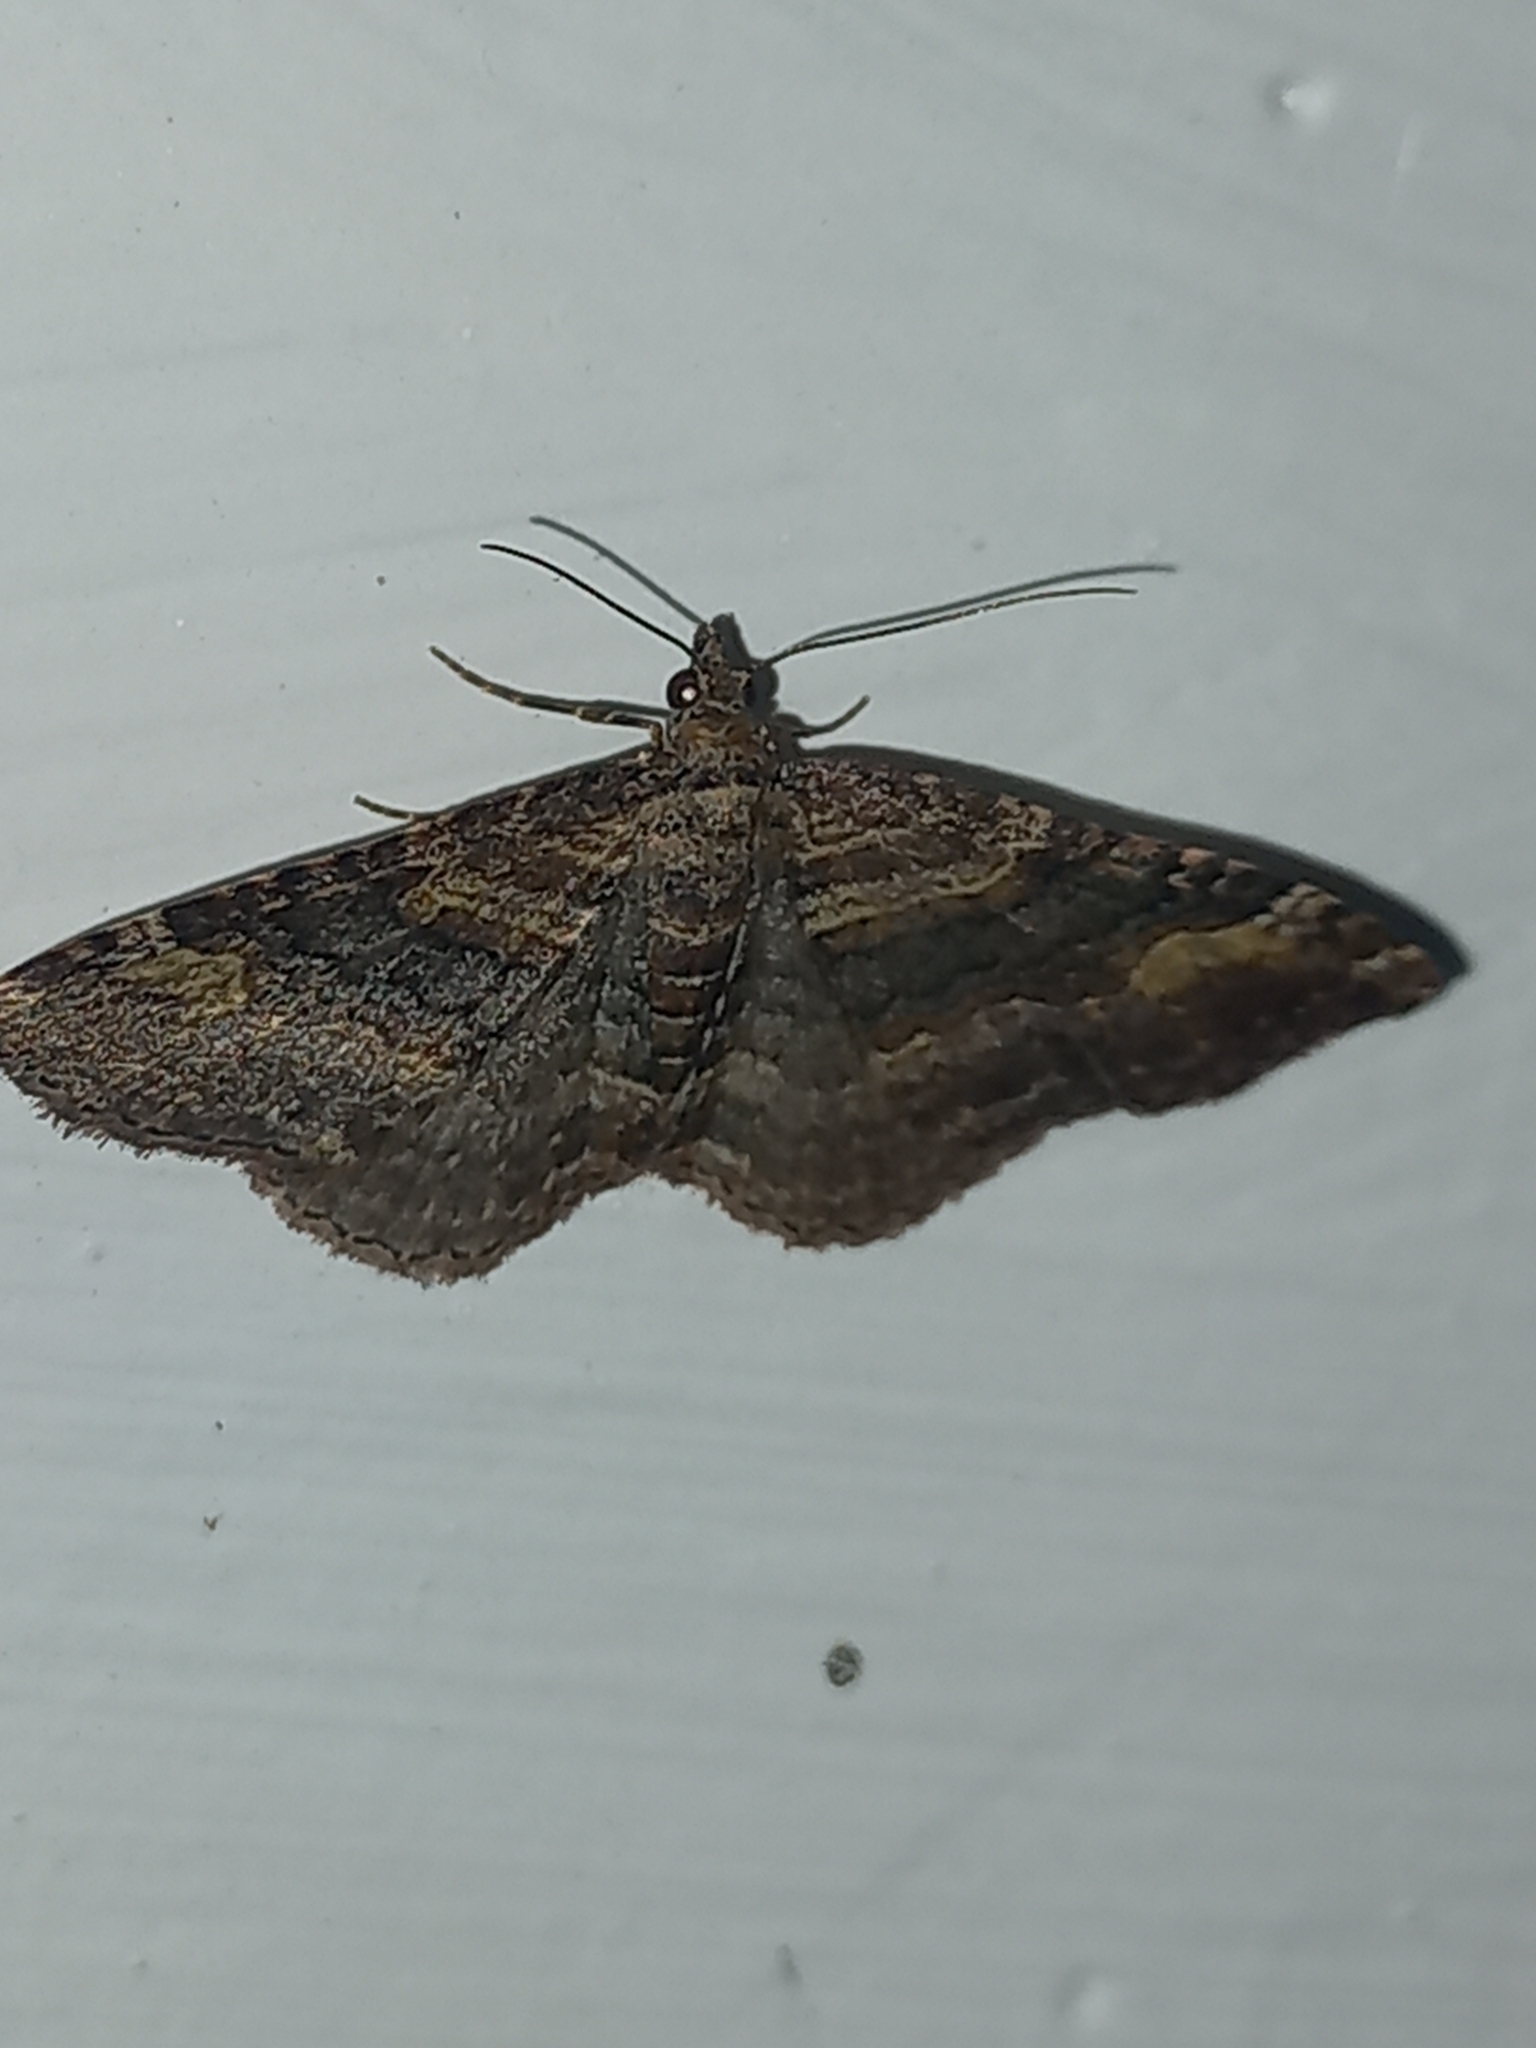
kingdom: Animalia
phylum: Arthropoda
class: Insecta
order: Lepidoptera
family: Geometridae
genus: Epyaxa
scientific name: Epyaxa lucidata
